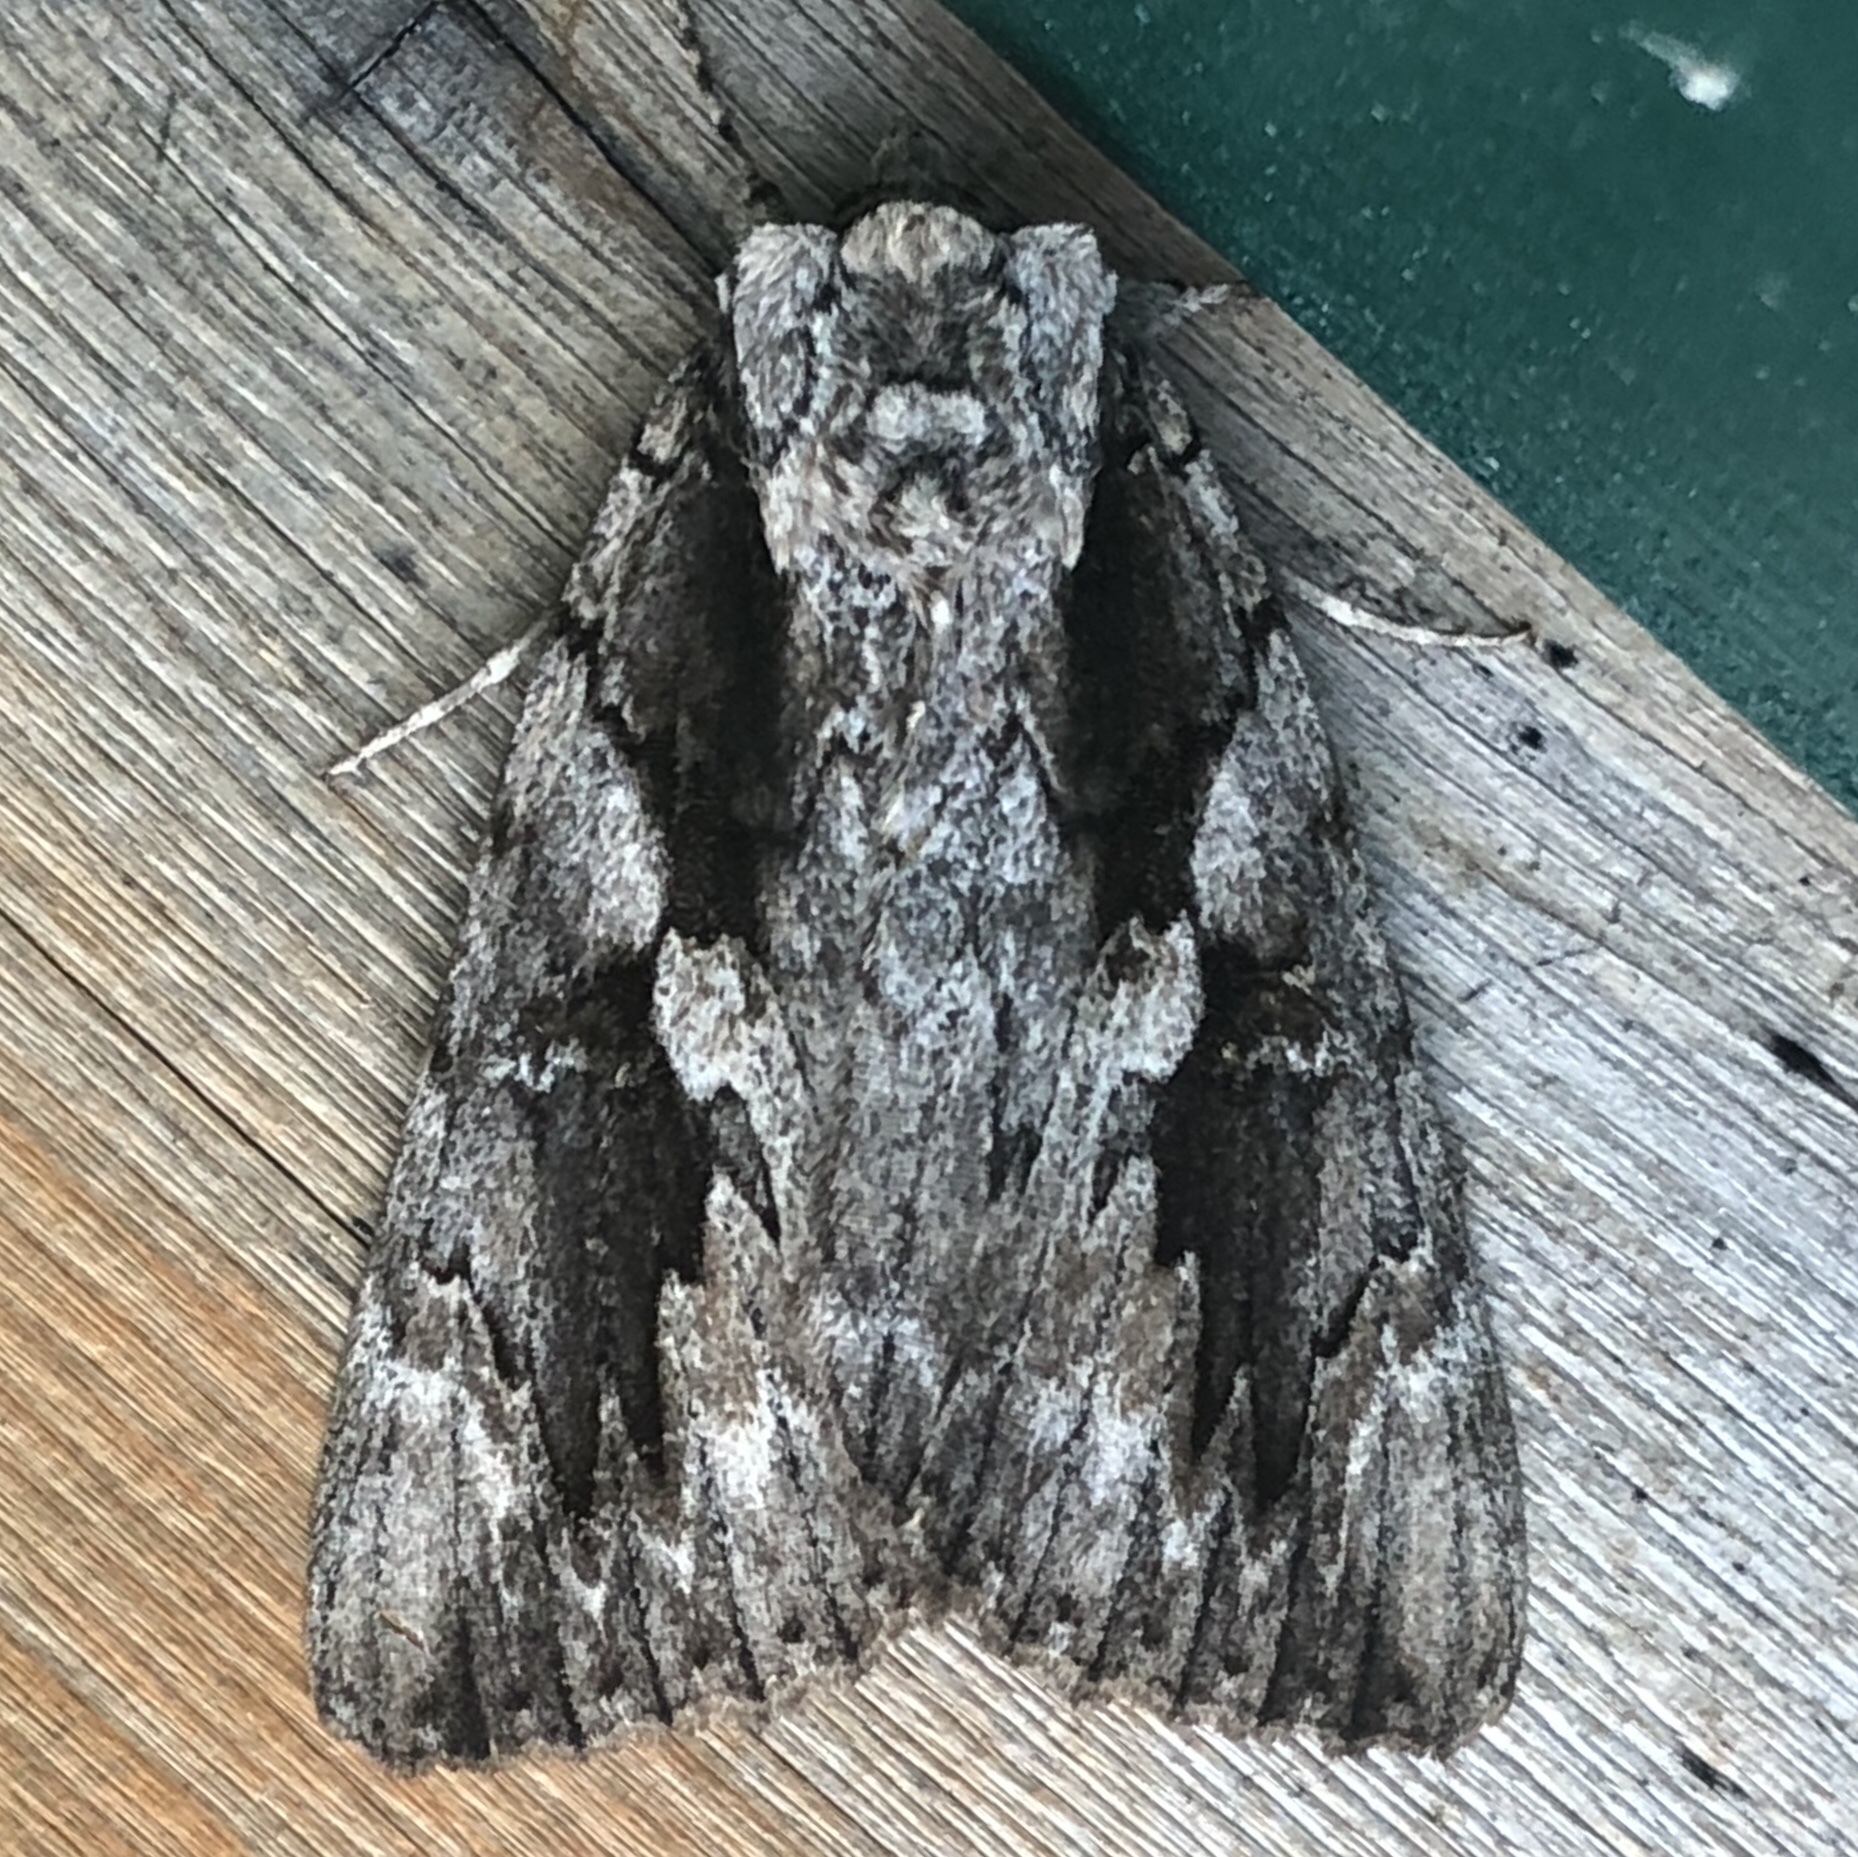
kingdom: Animalia
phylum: Arthropoda
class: Insecta
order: Lepidoptera
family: Erebidae
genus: Catocala
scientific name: Catocala amatrix
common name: Sweetheart underwing
